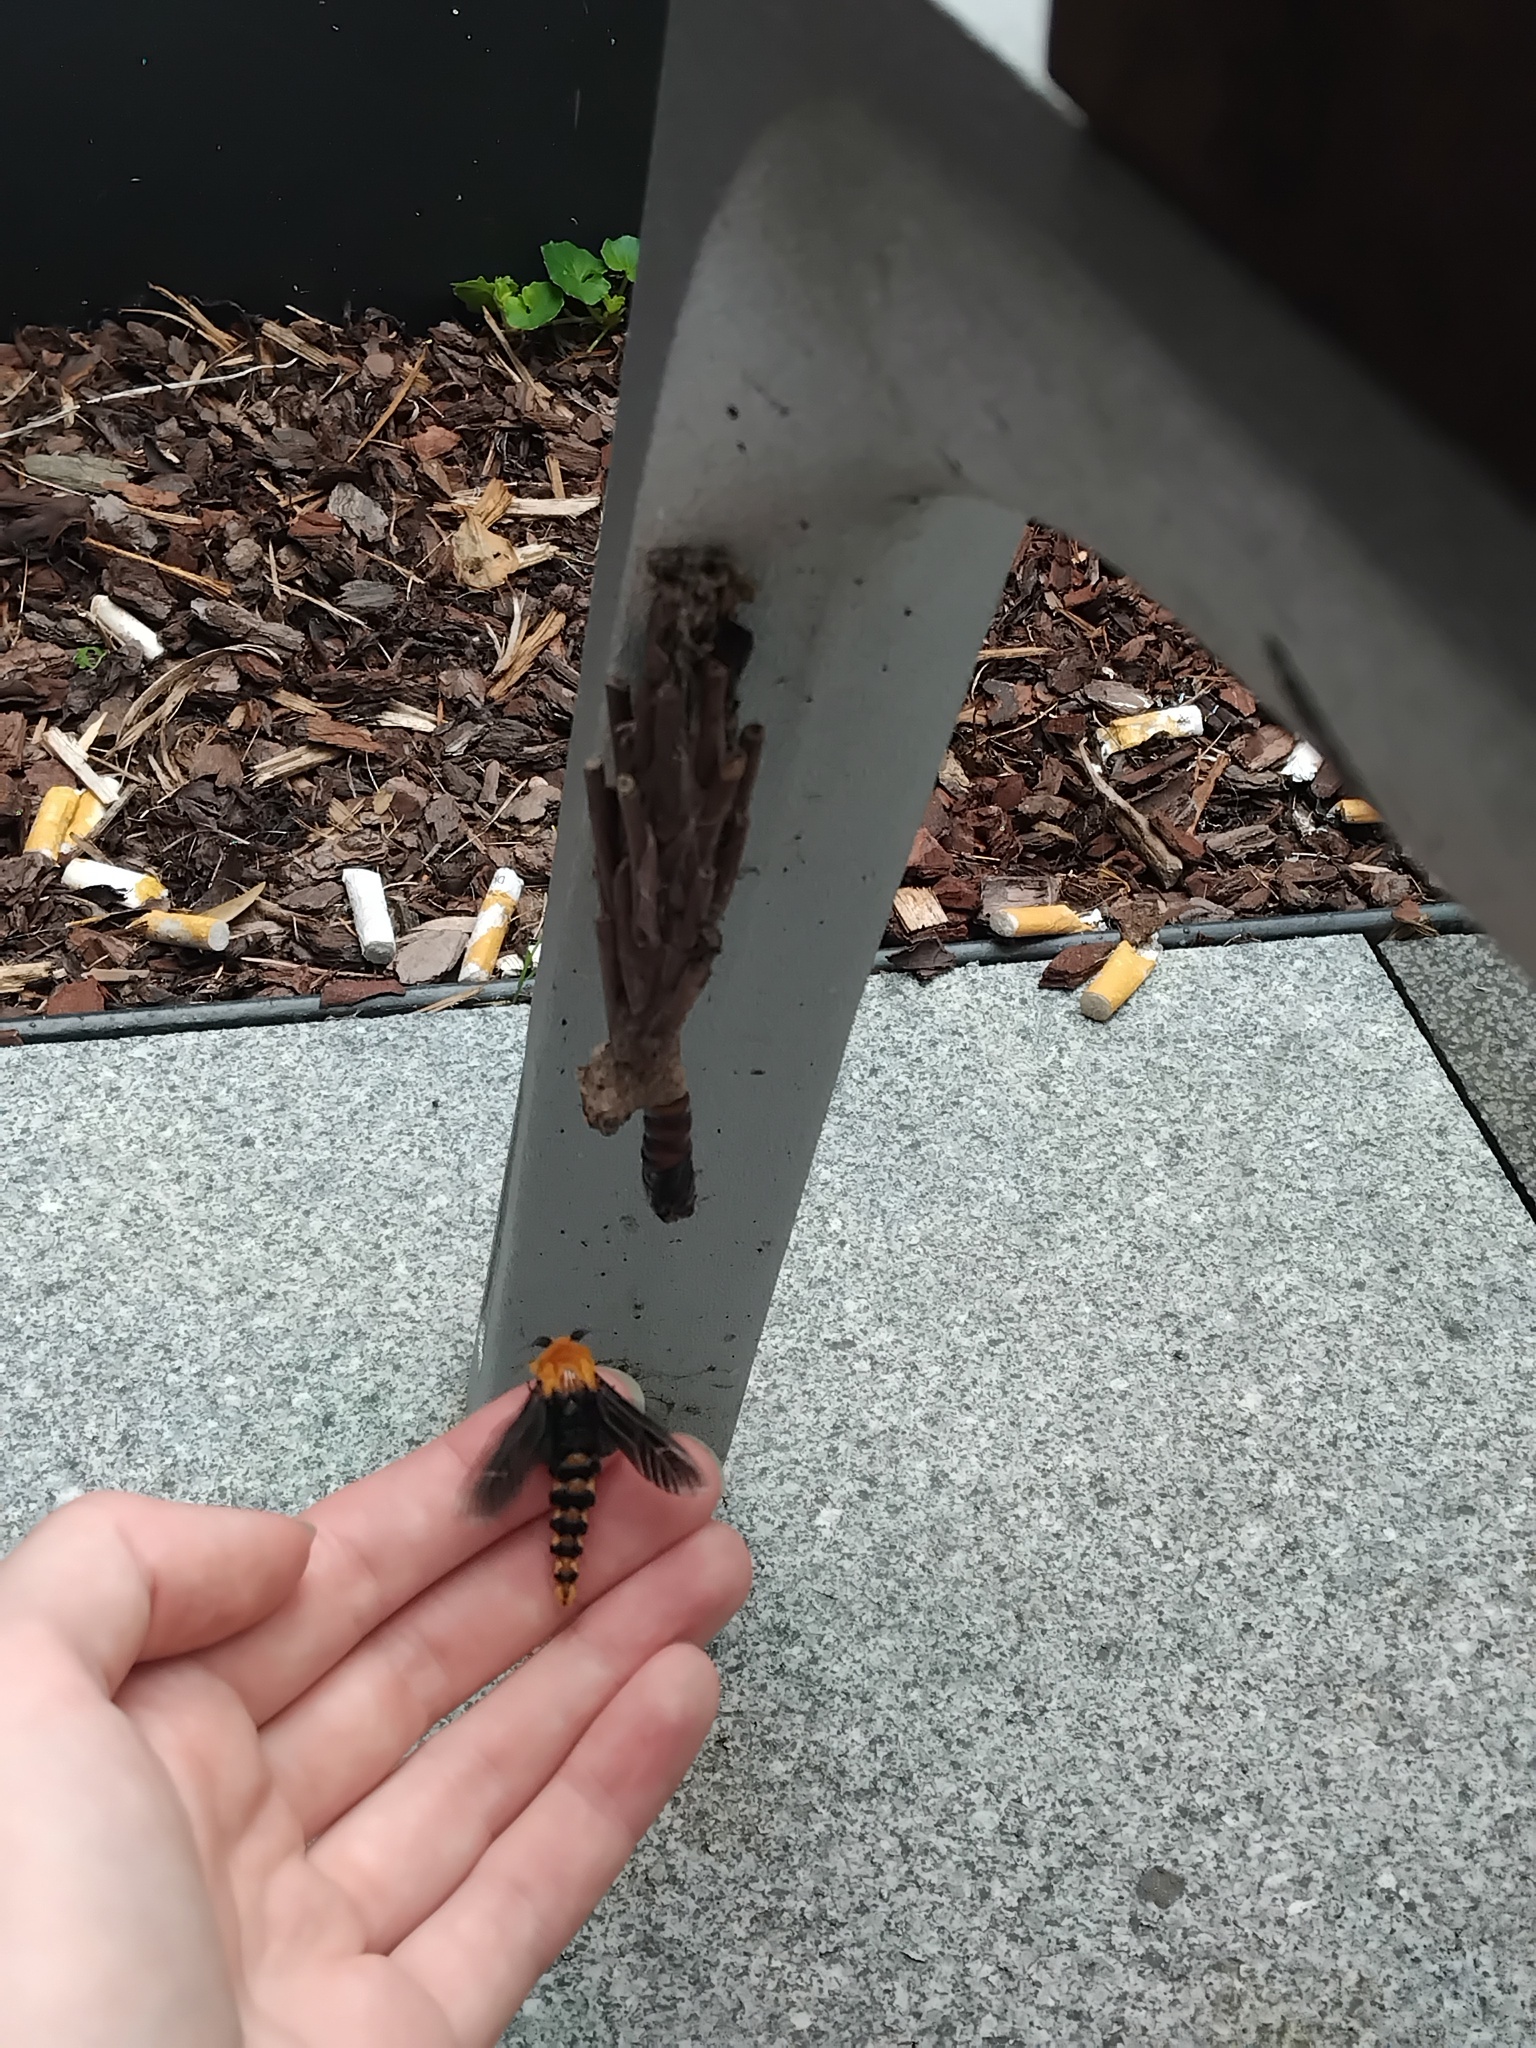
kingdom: Animalia
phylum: Arthropoda
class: Insecta
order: Lepidoptera
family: Psychidae
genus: Metura
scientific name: Metura elongatus
